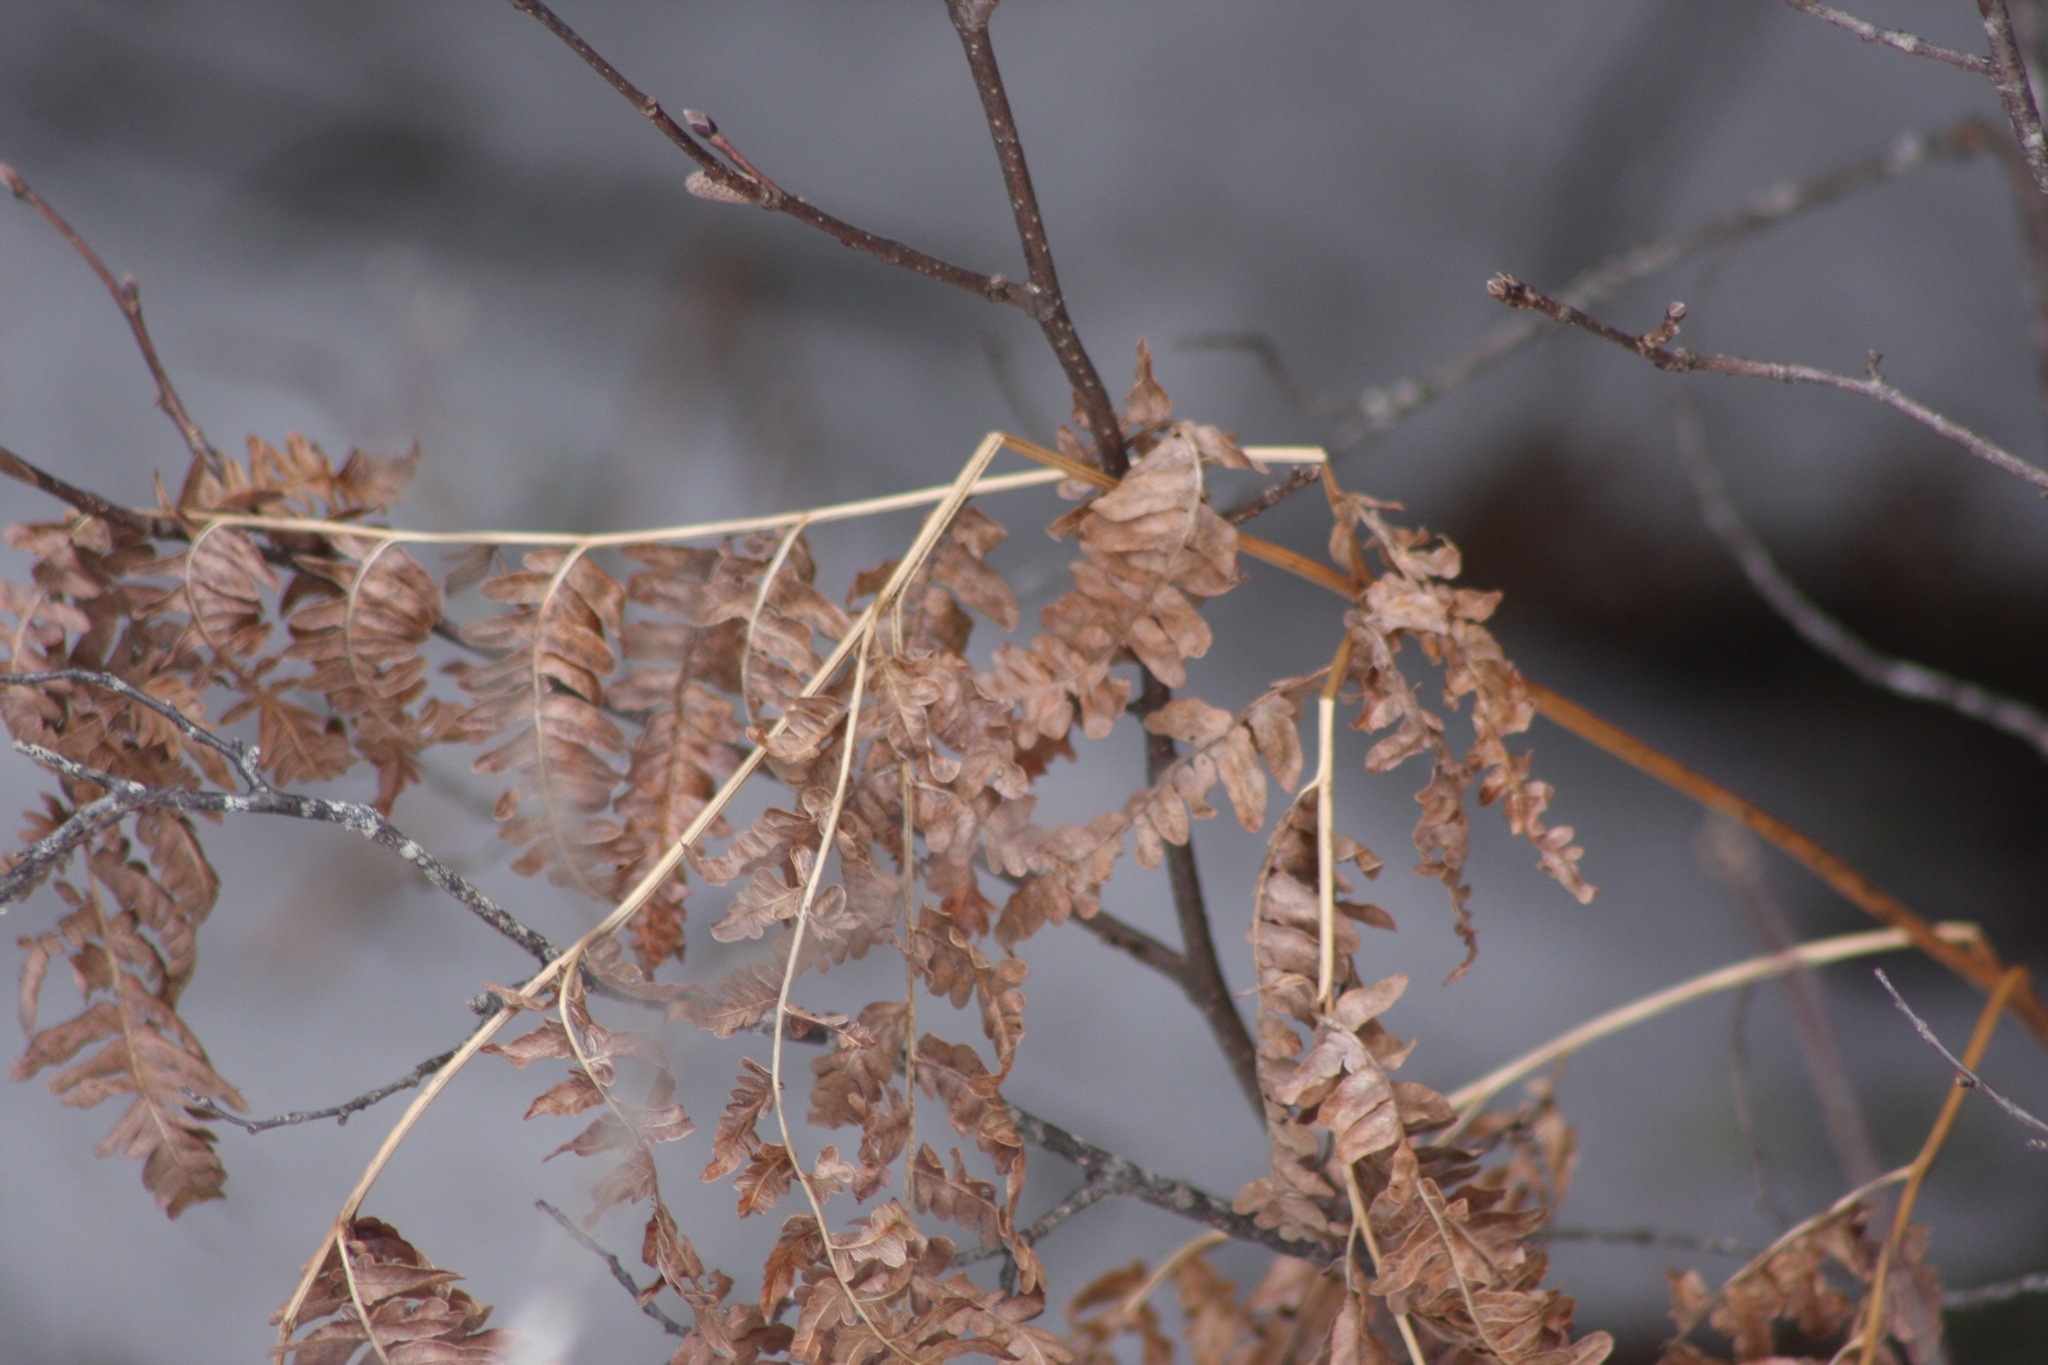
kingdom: Plantae
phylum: Tracheophyta
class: Polypodiopsida
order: Polypodiales
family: Dennstaedtiaceae
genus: Pteridium
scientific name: Pteridium aquilinum
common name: Bracken
